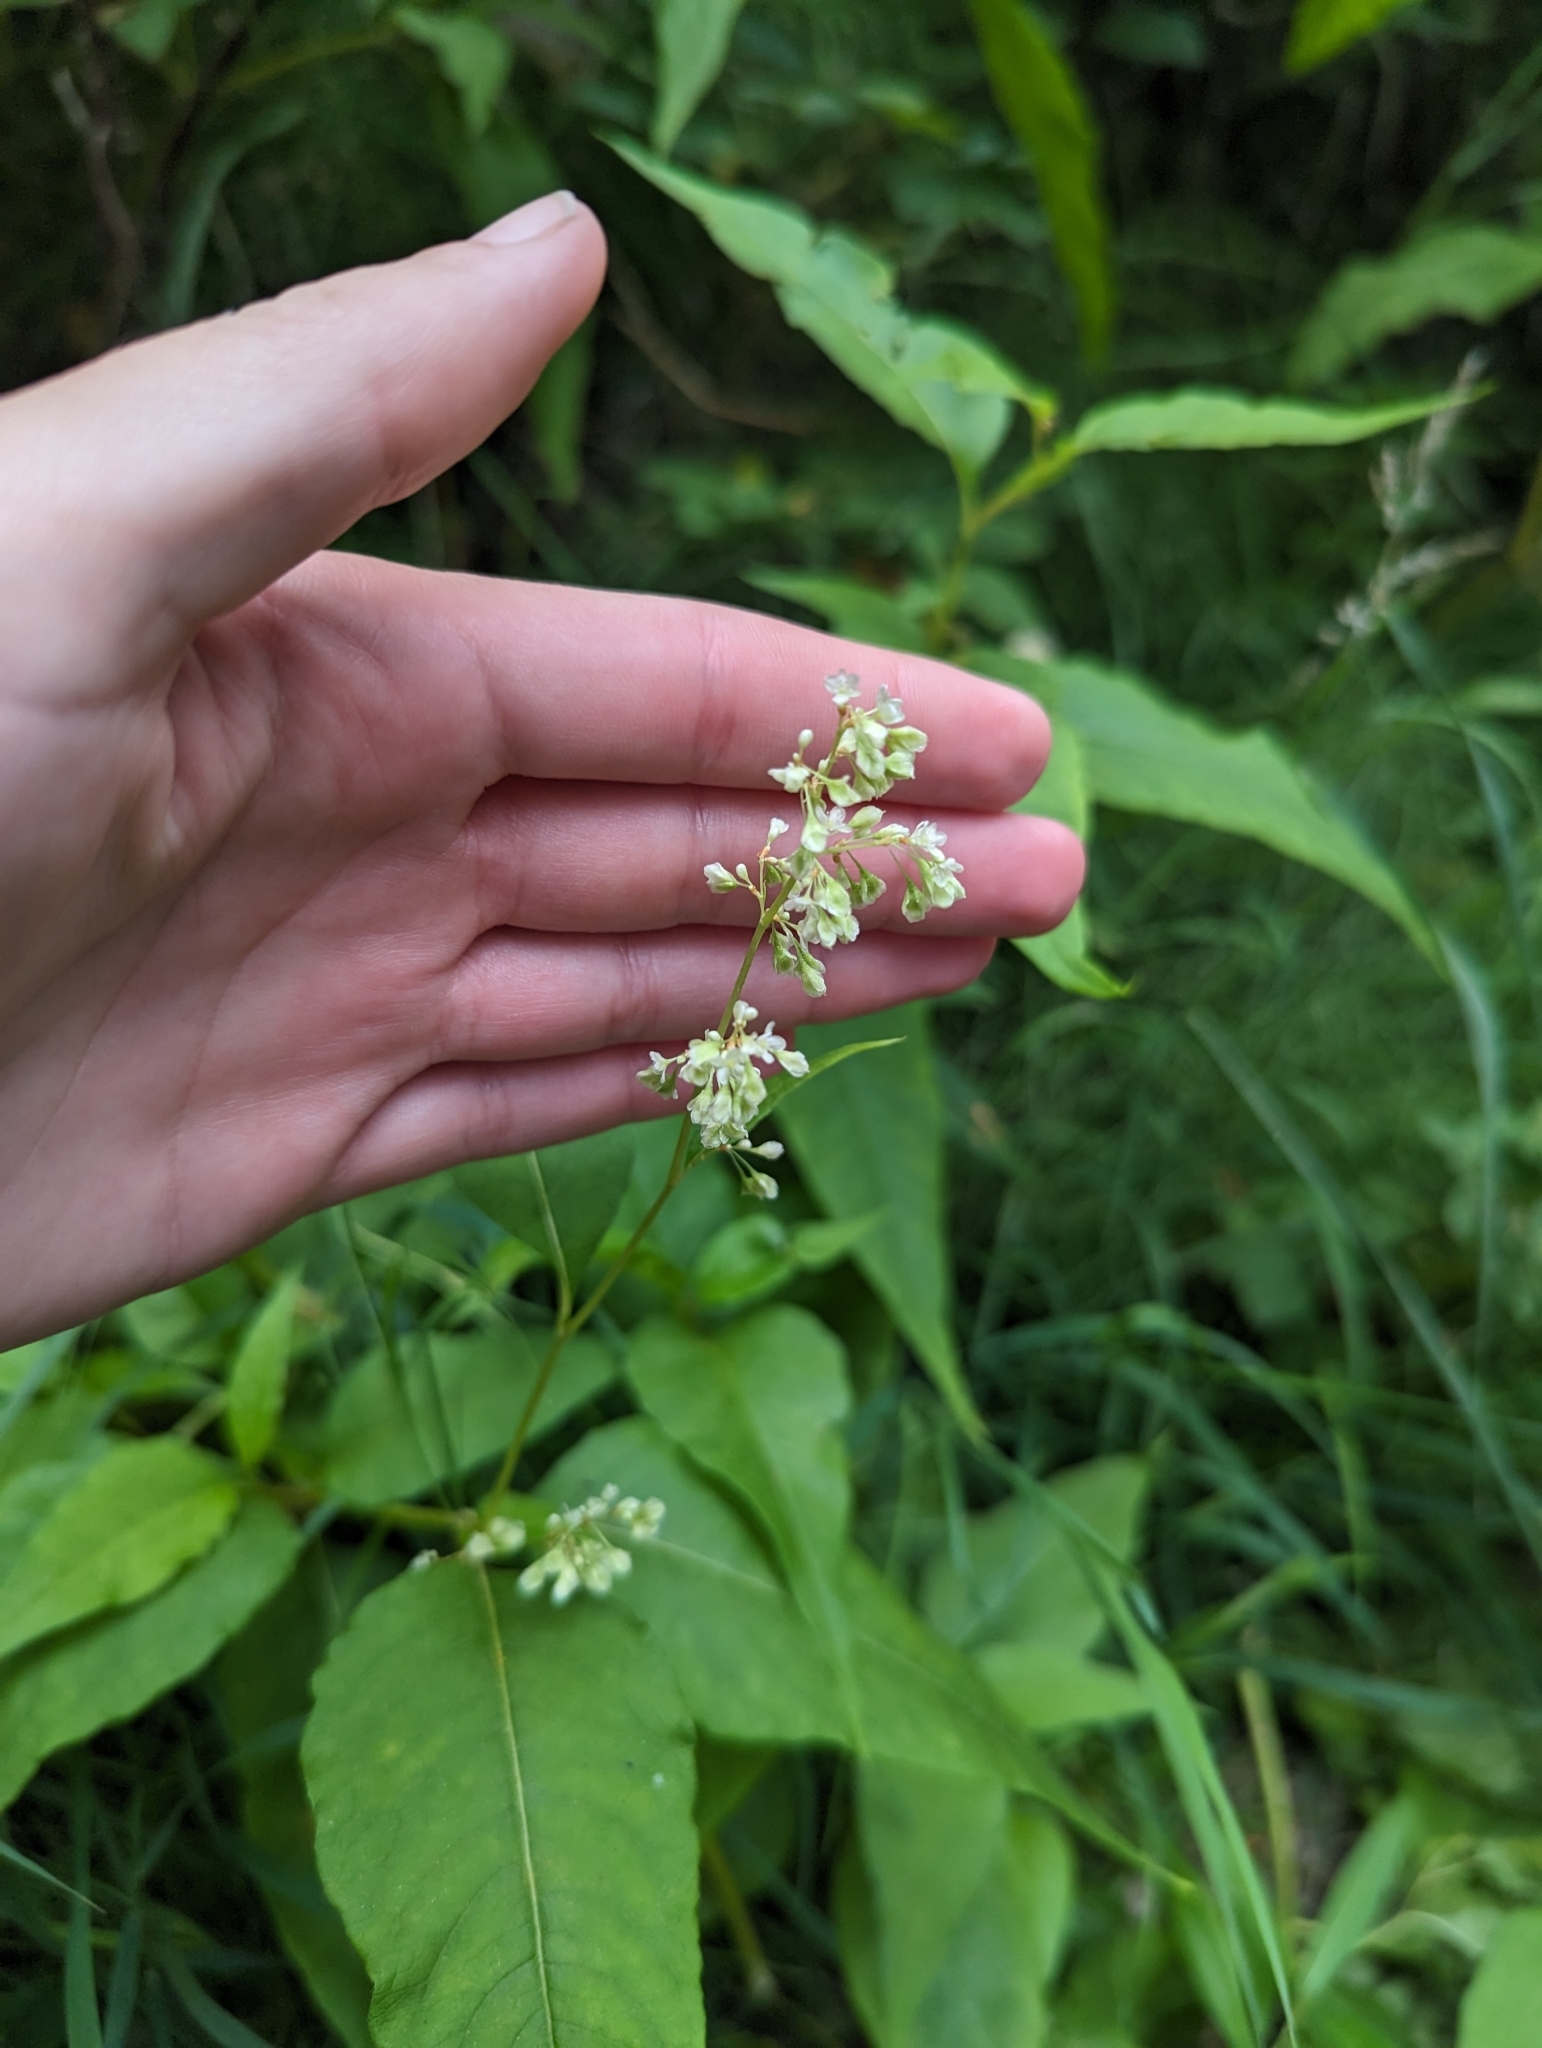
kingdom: Plantae
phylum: Tracheophyta
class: Magnoliopsida
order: Caryophyllales
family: Polygonaceae
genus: Koenigia
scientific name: Koenigia lapathifolia
